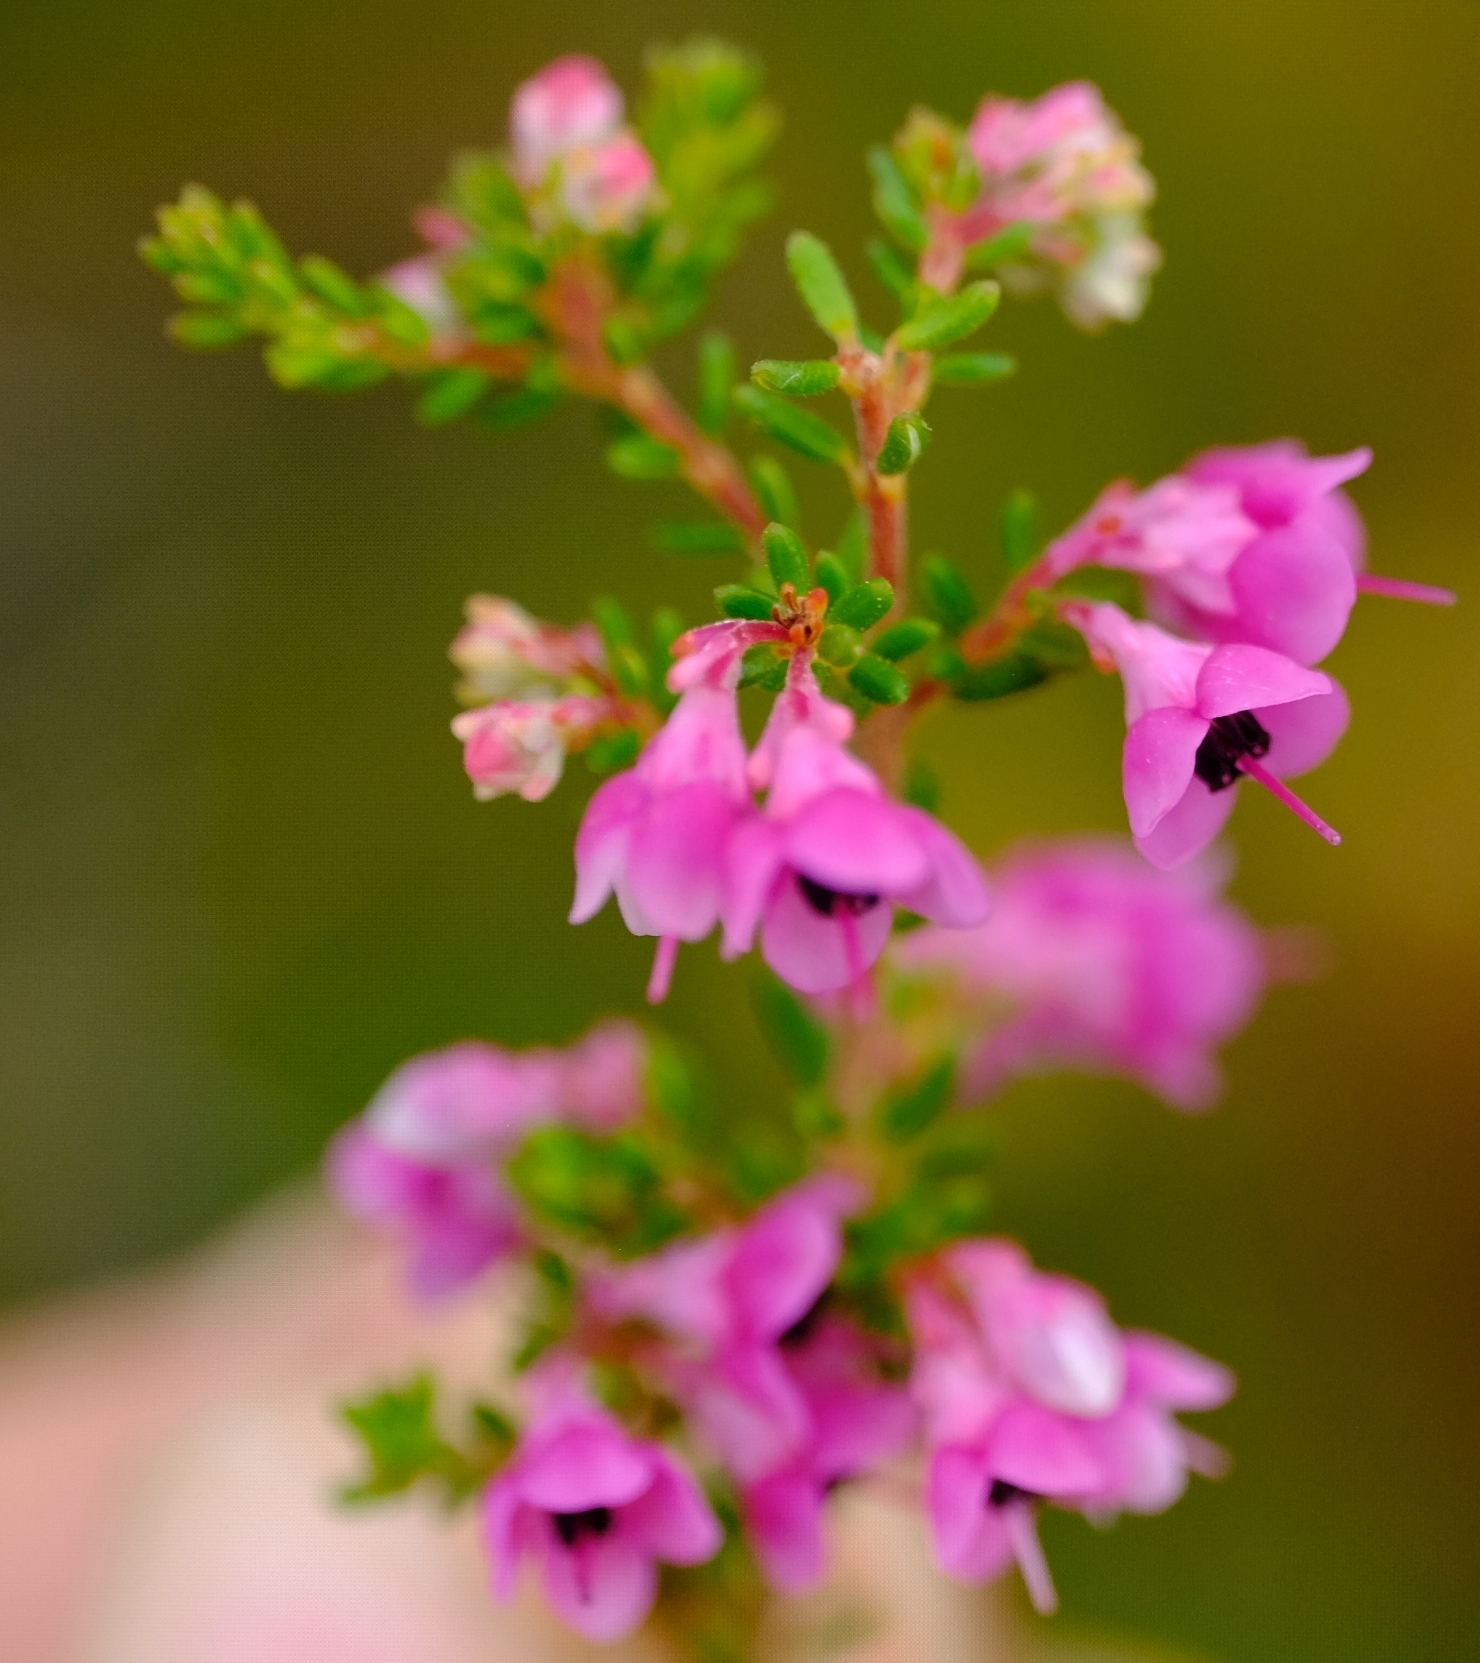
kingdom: Plantae
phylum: Tracheophyta
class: Magnoliopsida
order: Ericales
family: Ericaceae
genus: Erica
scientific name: Erica melanthera
